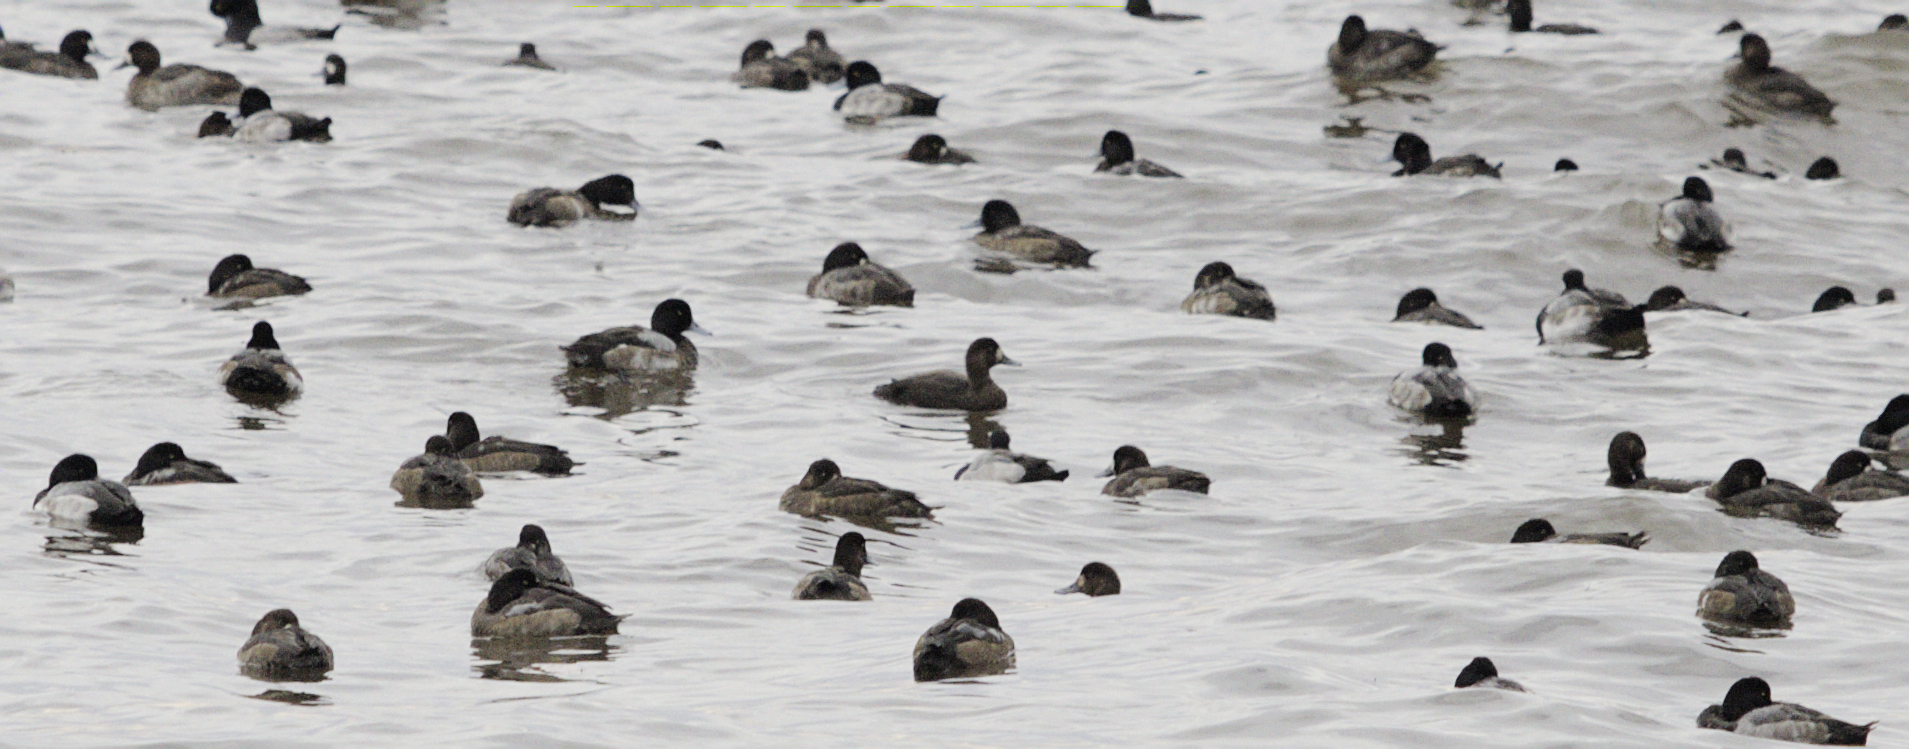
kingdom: Animalia
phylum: Chordata
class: Aves
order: Anseriformes
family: Anatidae
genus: Aythya
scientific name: Aythya affinis
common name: Lesser scaup
